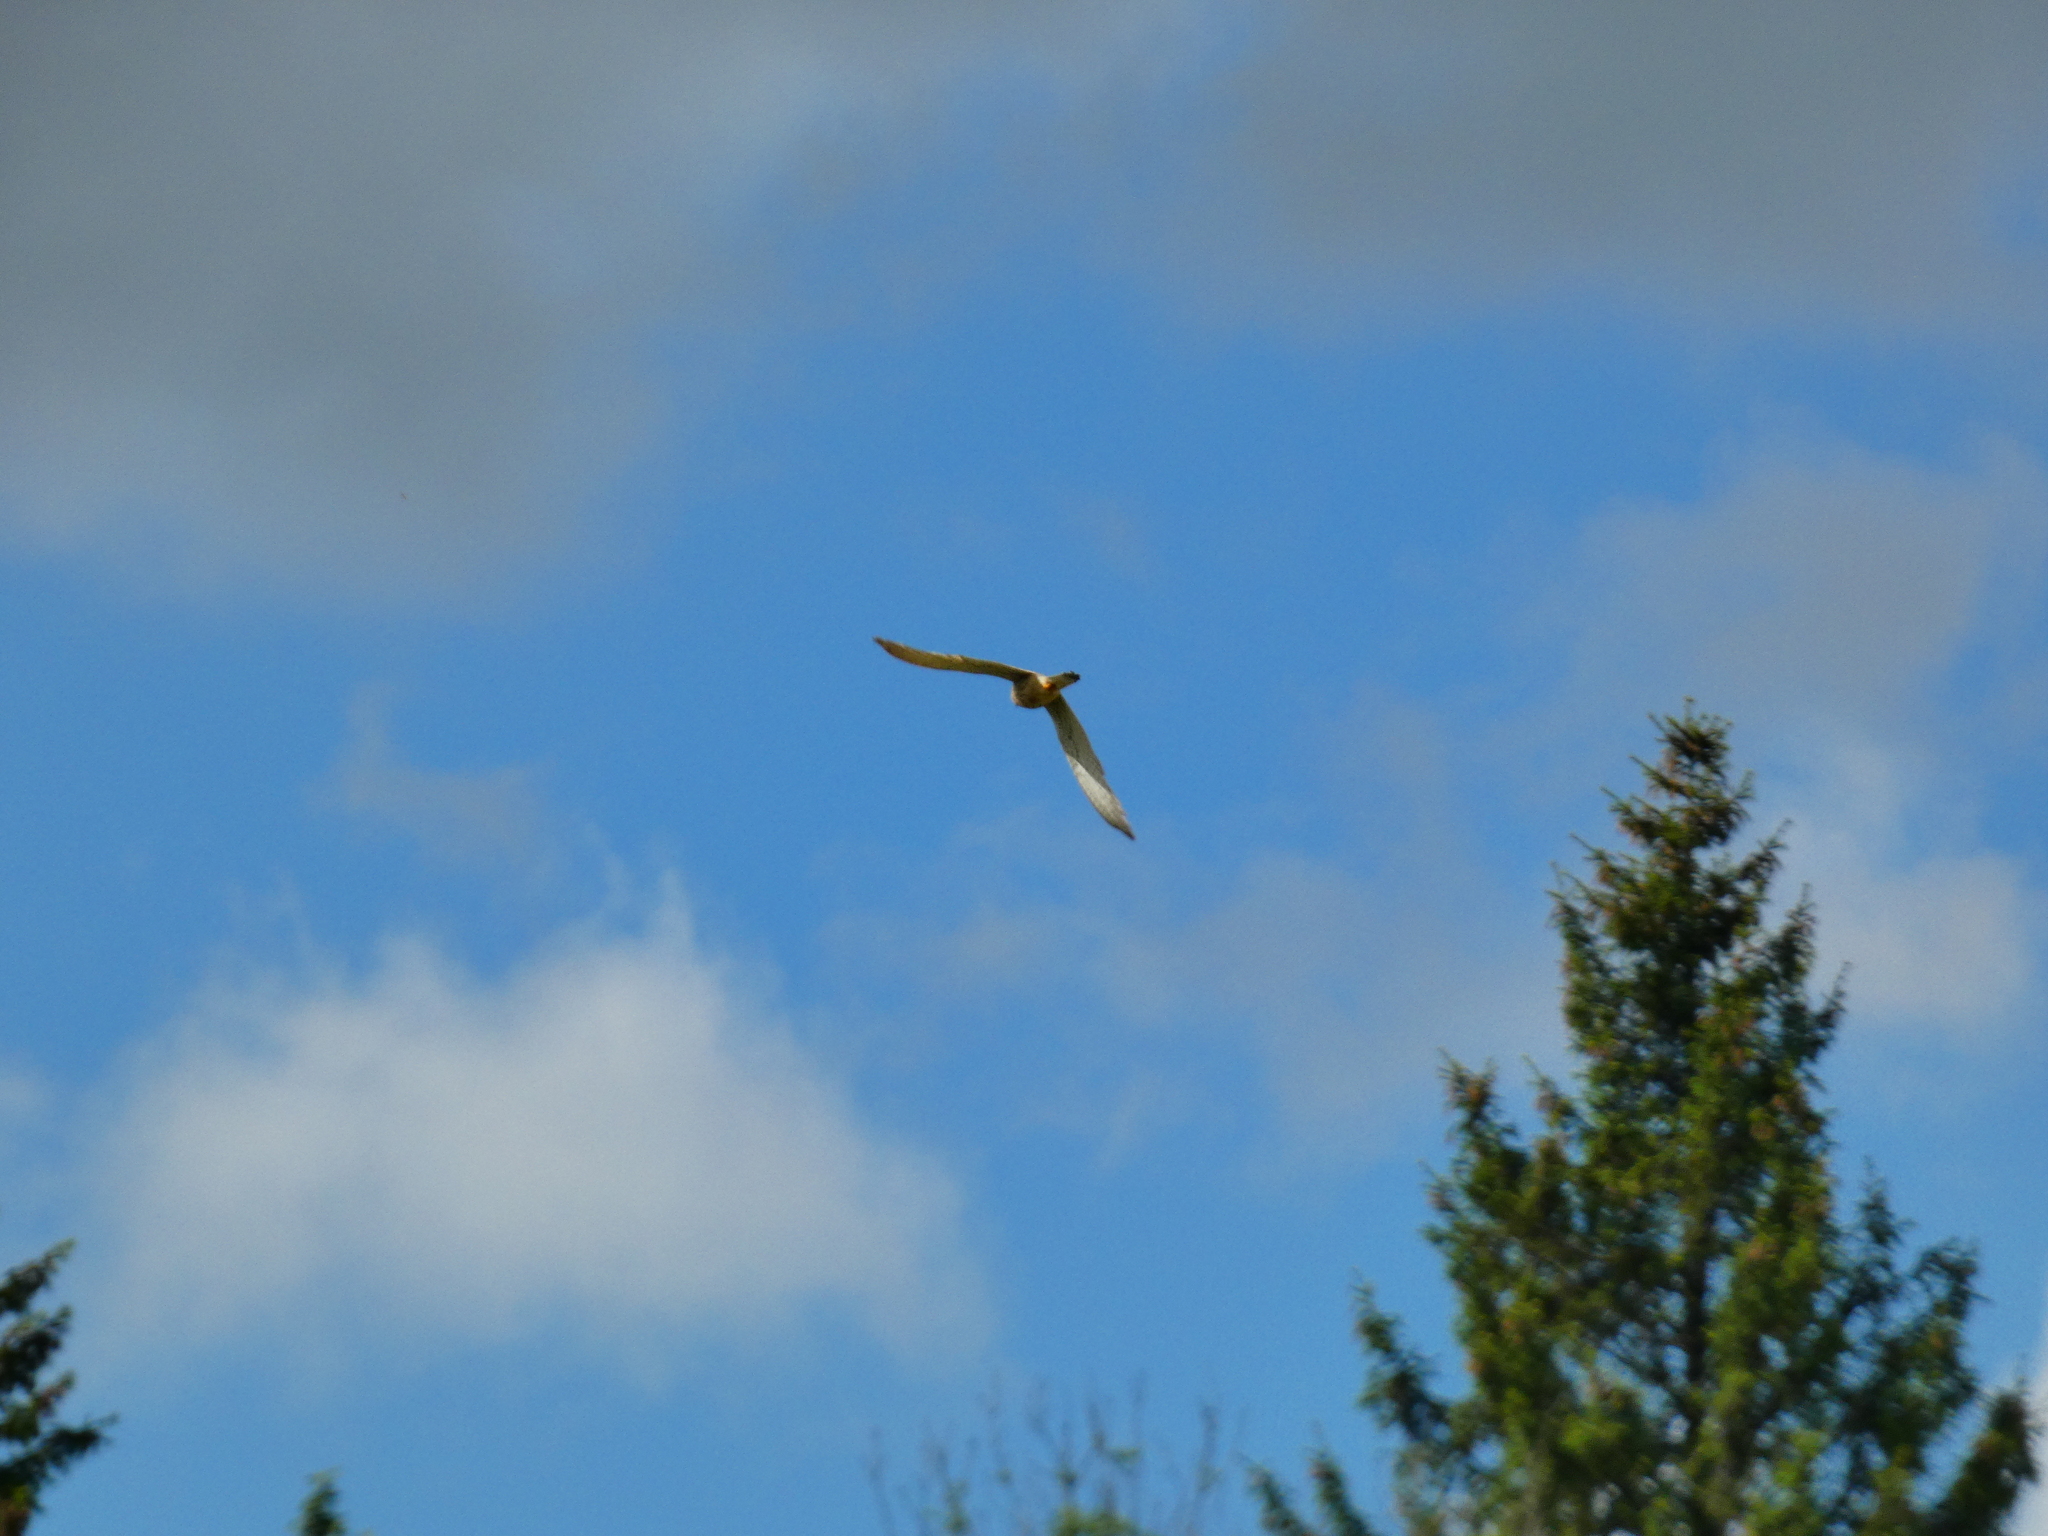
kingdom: Animalia
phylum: Chordata
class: Aves
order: Falconiformes
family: Falconidae
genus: Falco
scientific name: Falco tinnunculus
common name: Common kestrel
